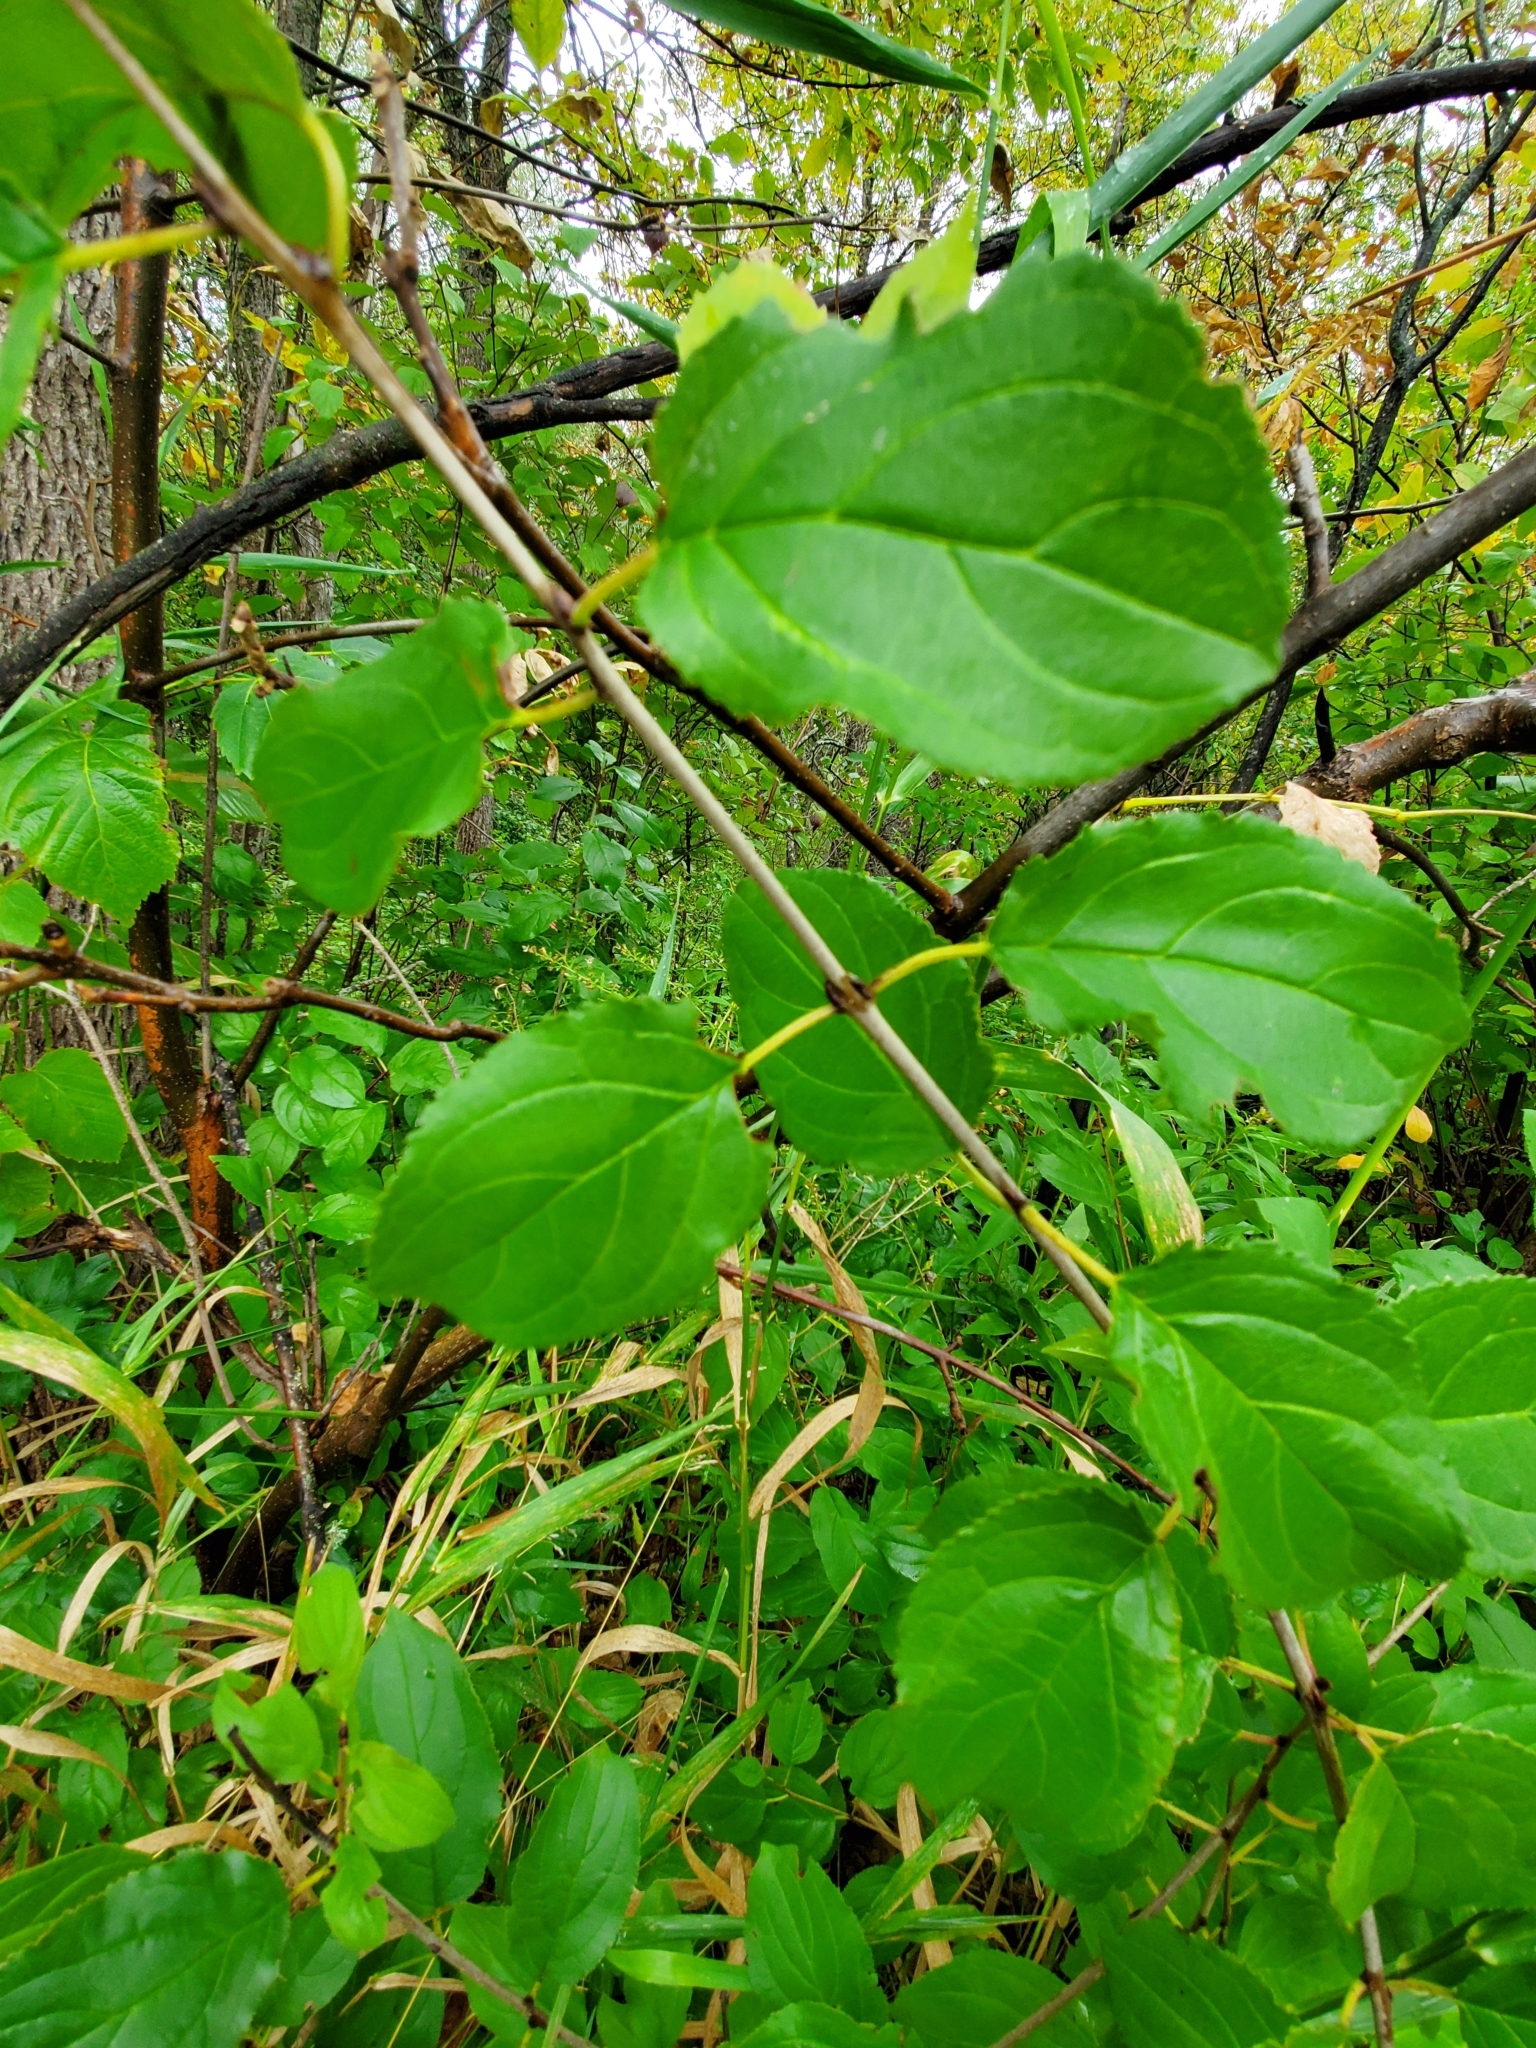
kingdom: Plantae
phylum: Tracheophyta
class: Magnoliopsida
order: Rosales
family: Rhamnaceae
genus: Rhamnus
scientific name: Rhamnus cathartica
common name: Common buckthorn
